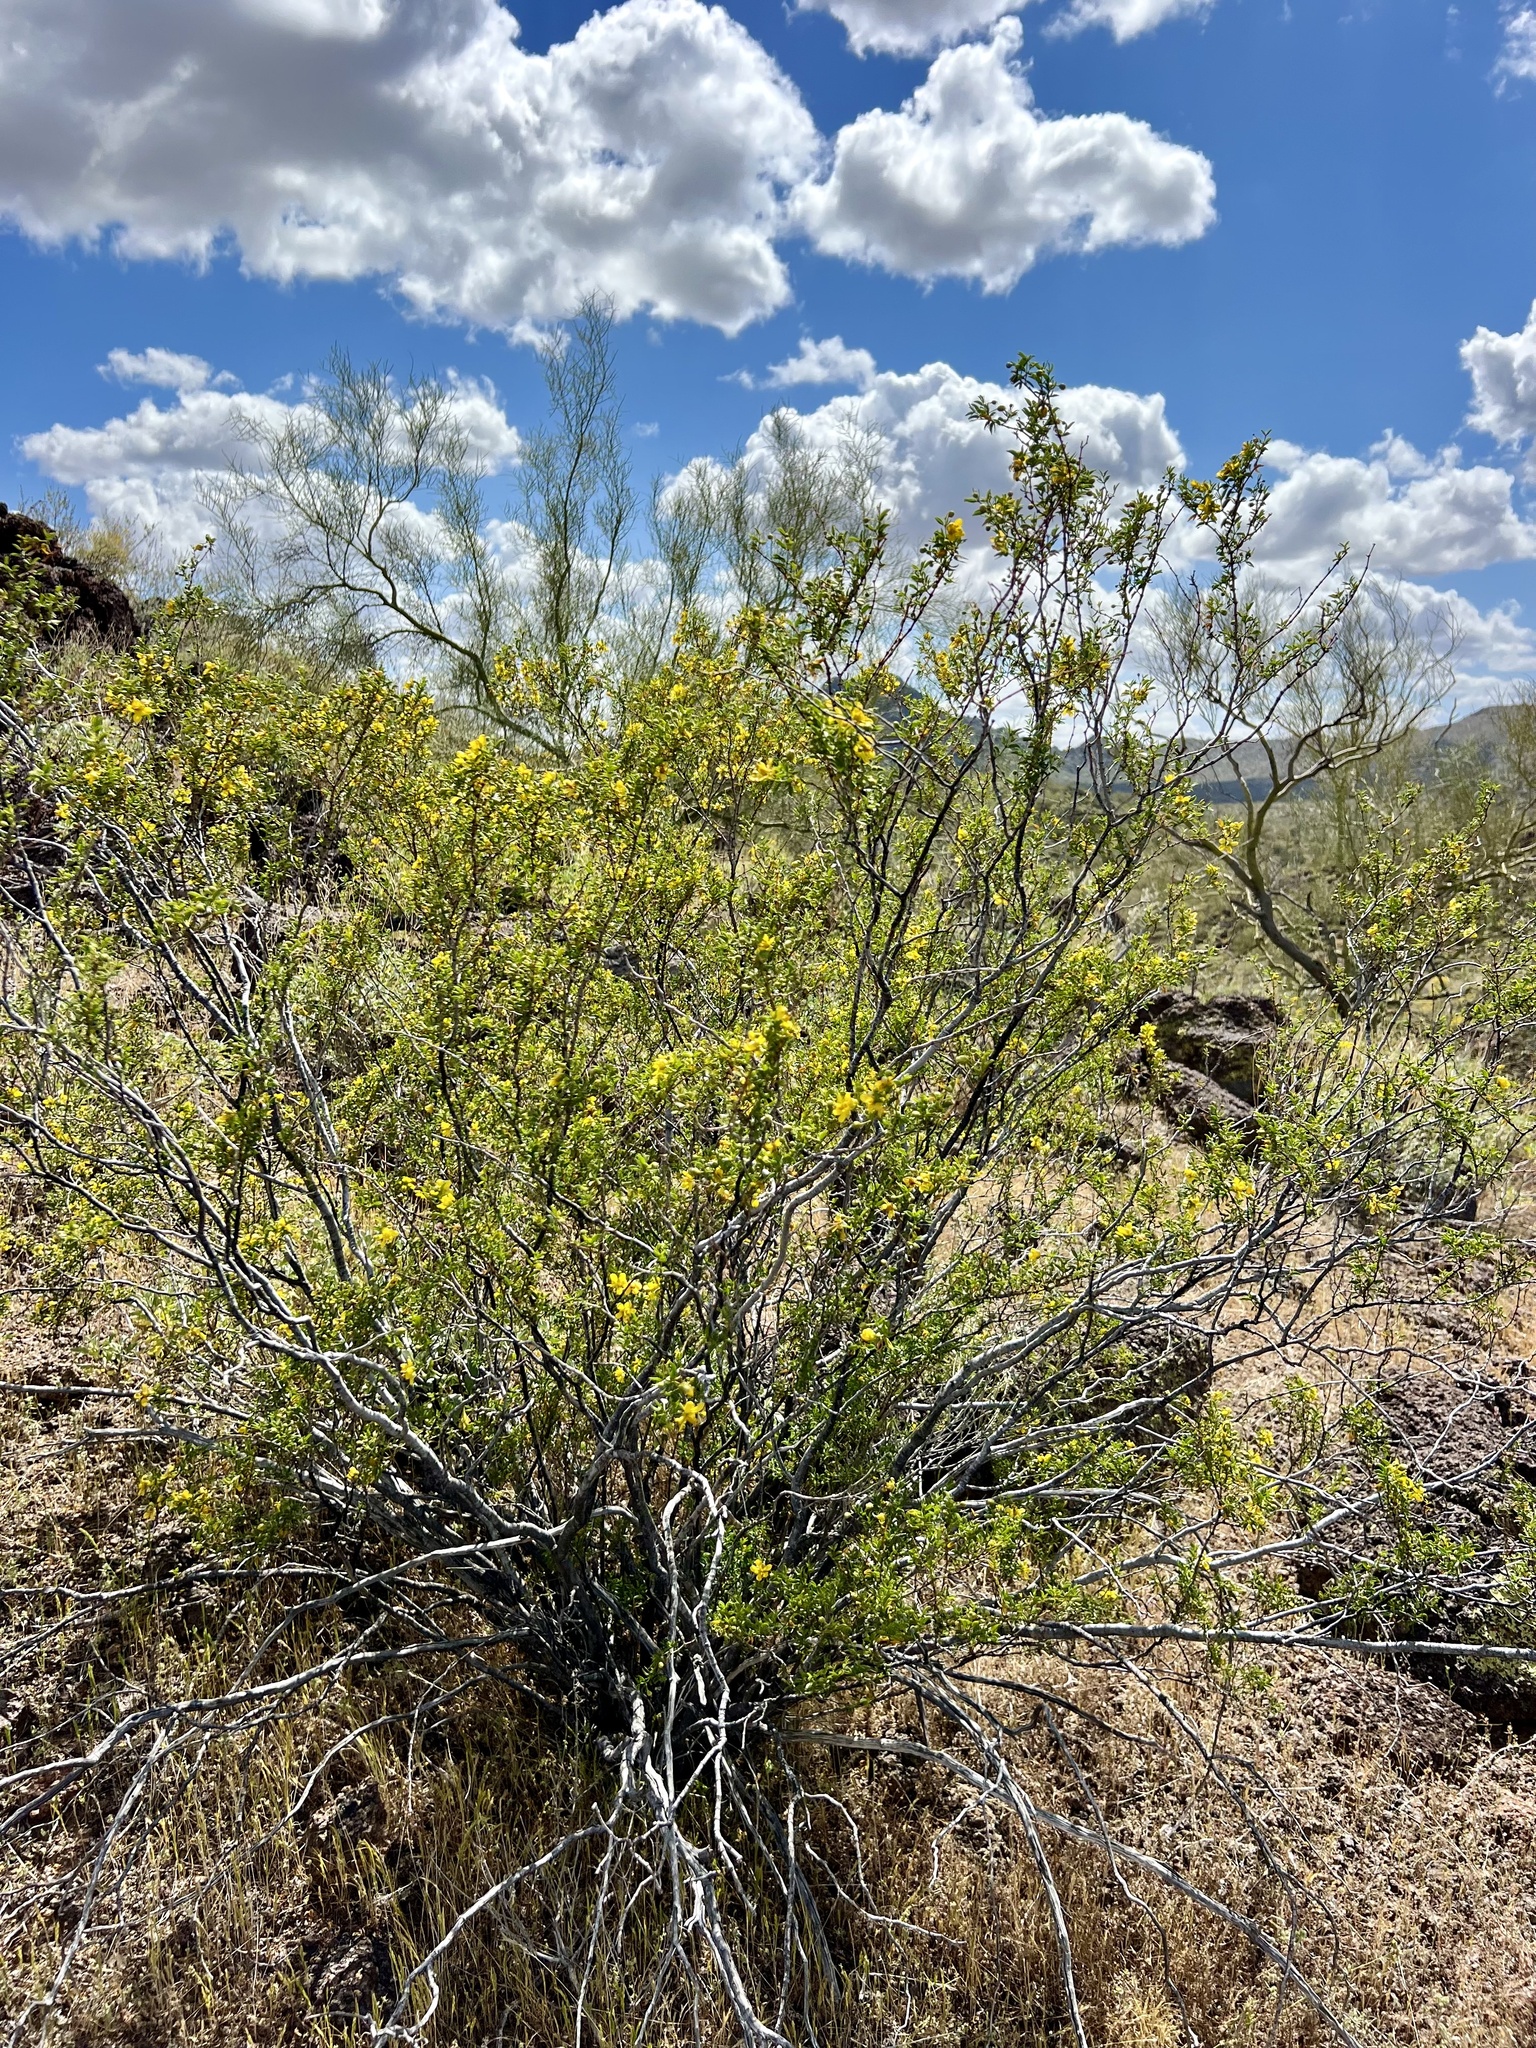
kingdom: Plantae
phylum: Tracheophyta
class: Magnoliopsida
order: Zygophyllales
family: Zygophyllaceae
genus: Larrea
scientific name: Larrea tridentata
